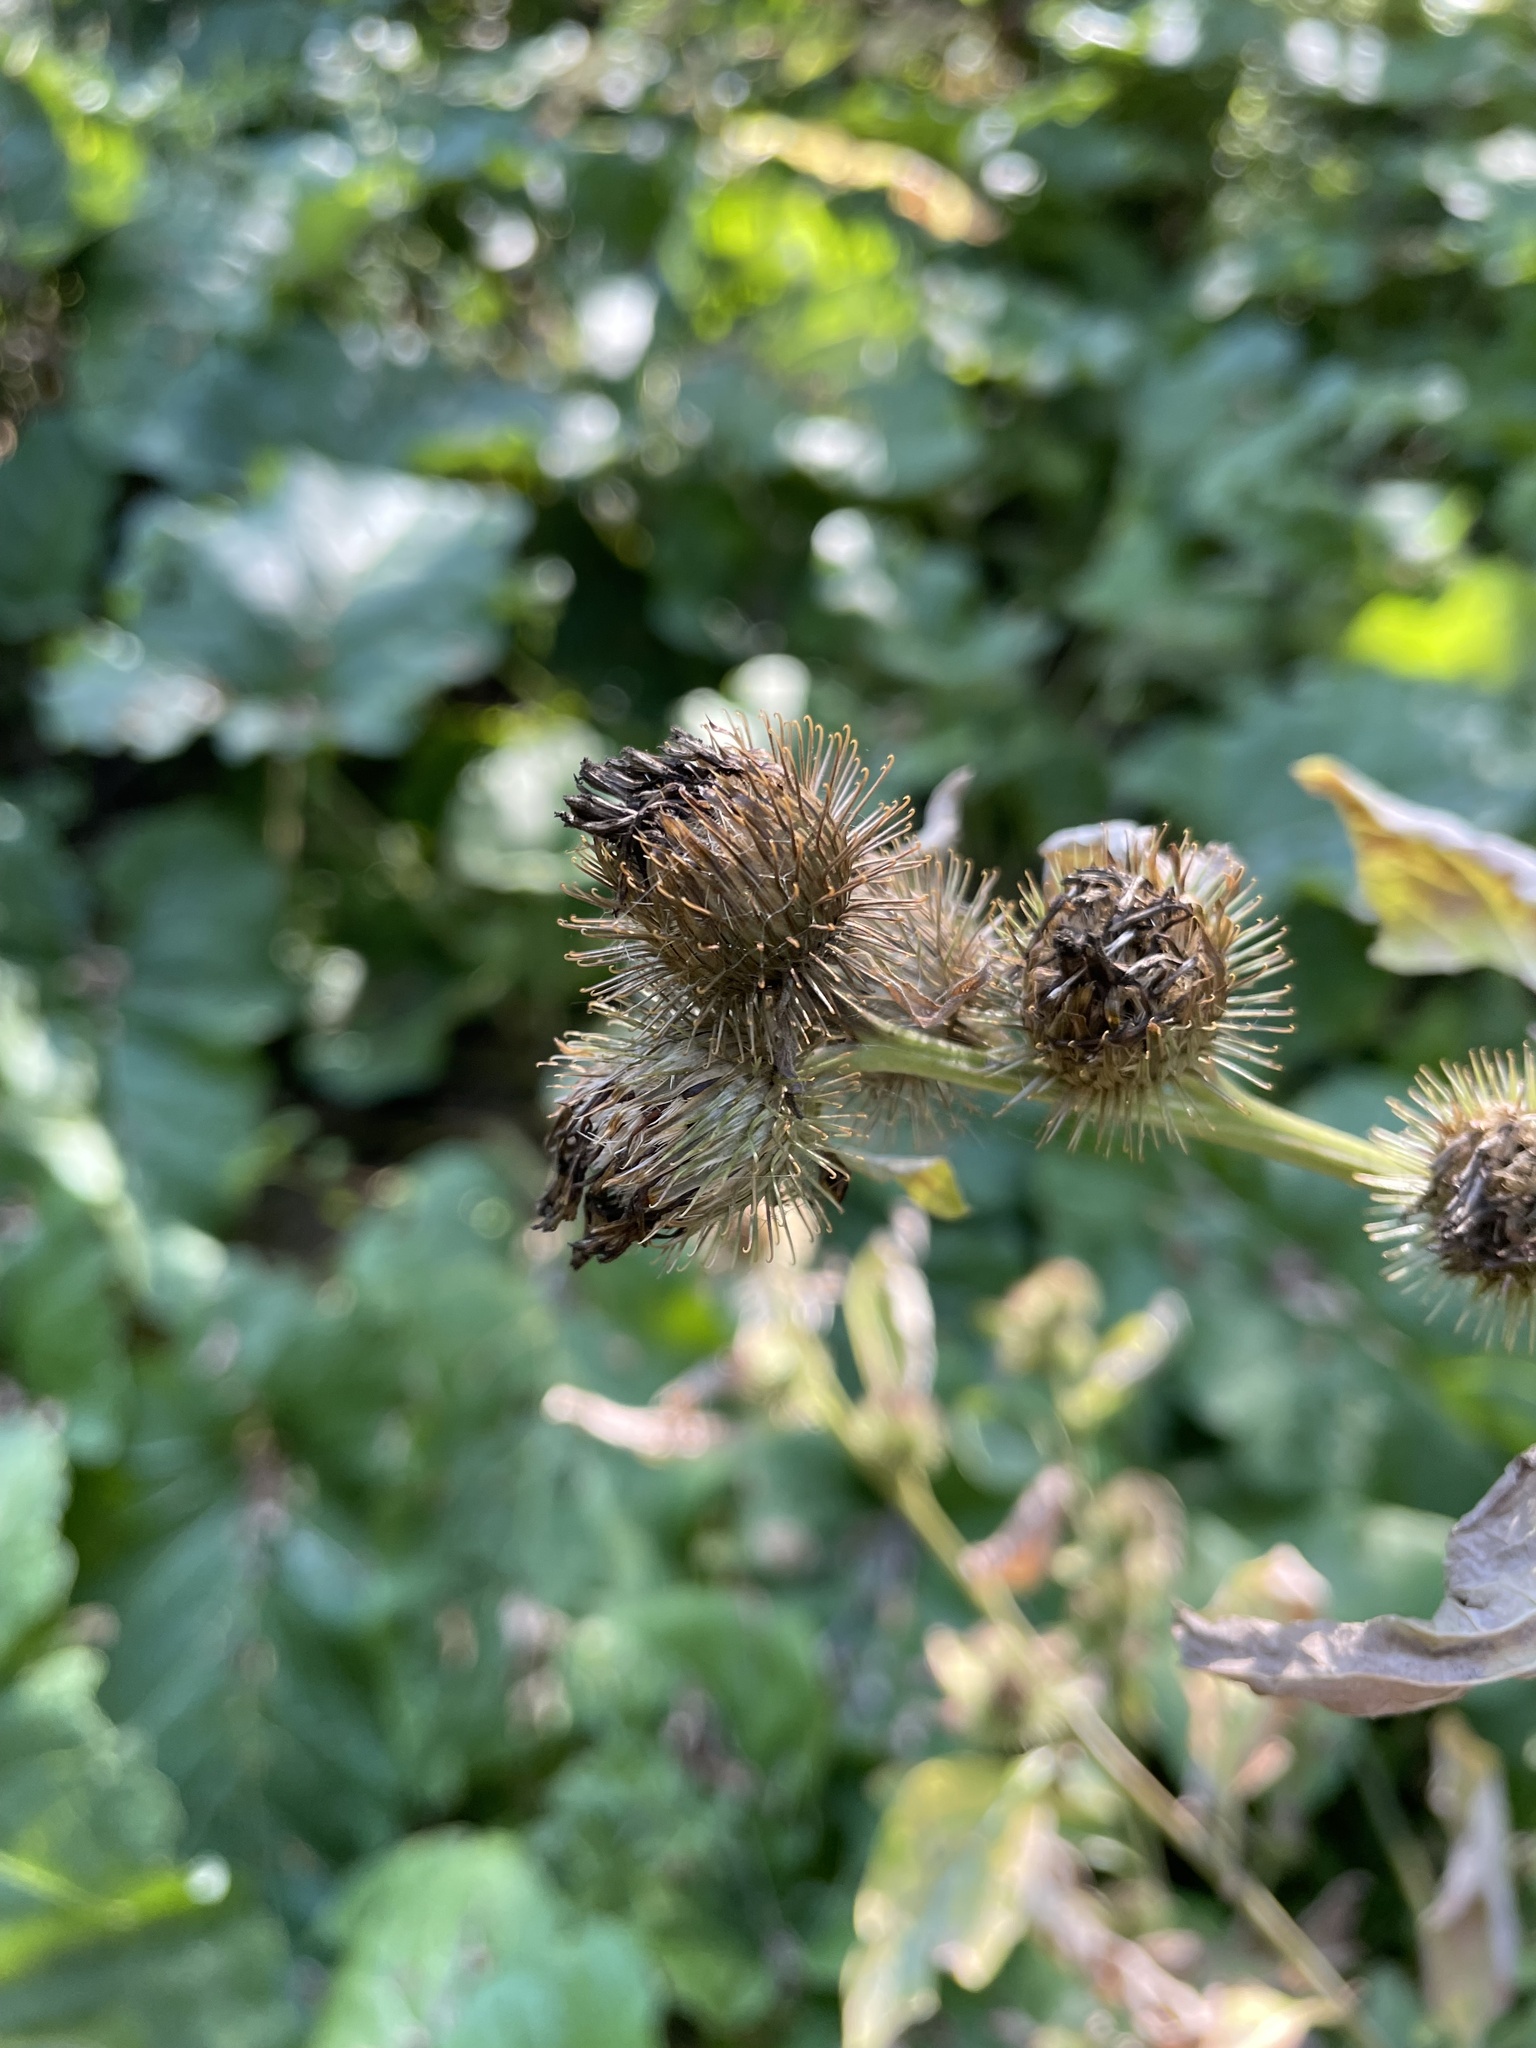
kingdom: Plantae
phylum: Tracheophyta
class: Magnoliopsida
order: Asterales
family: Asteraceae
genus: Arctium
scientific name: Arctium minus
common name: Lesser burdock
